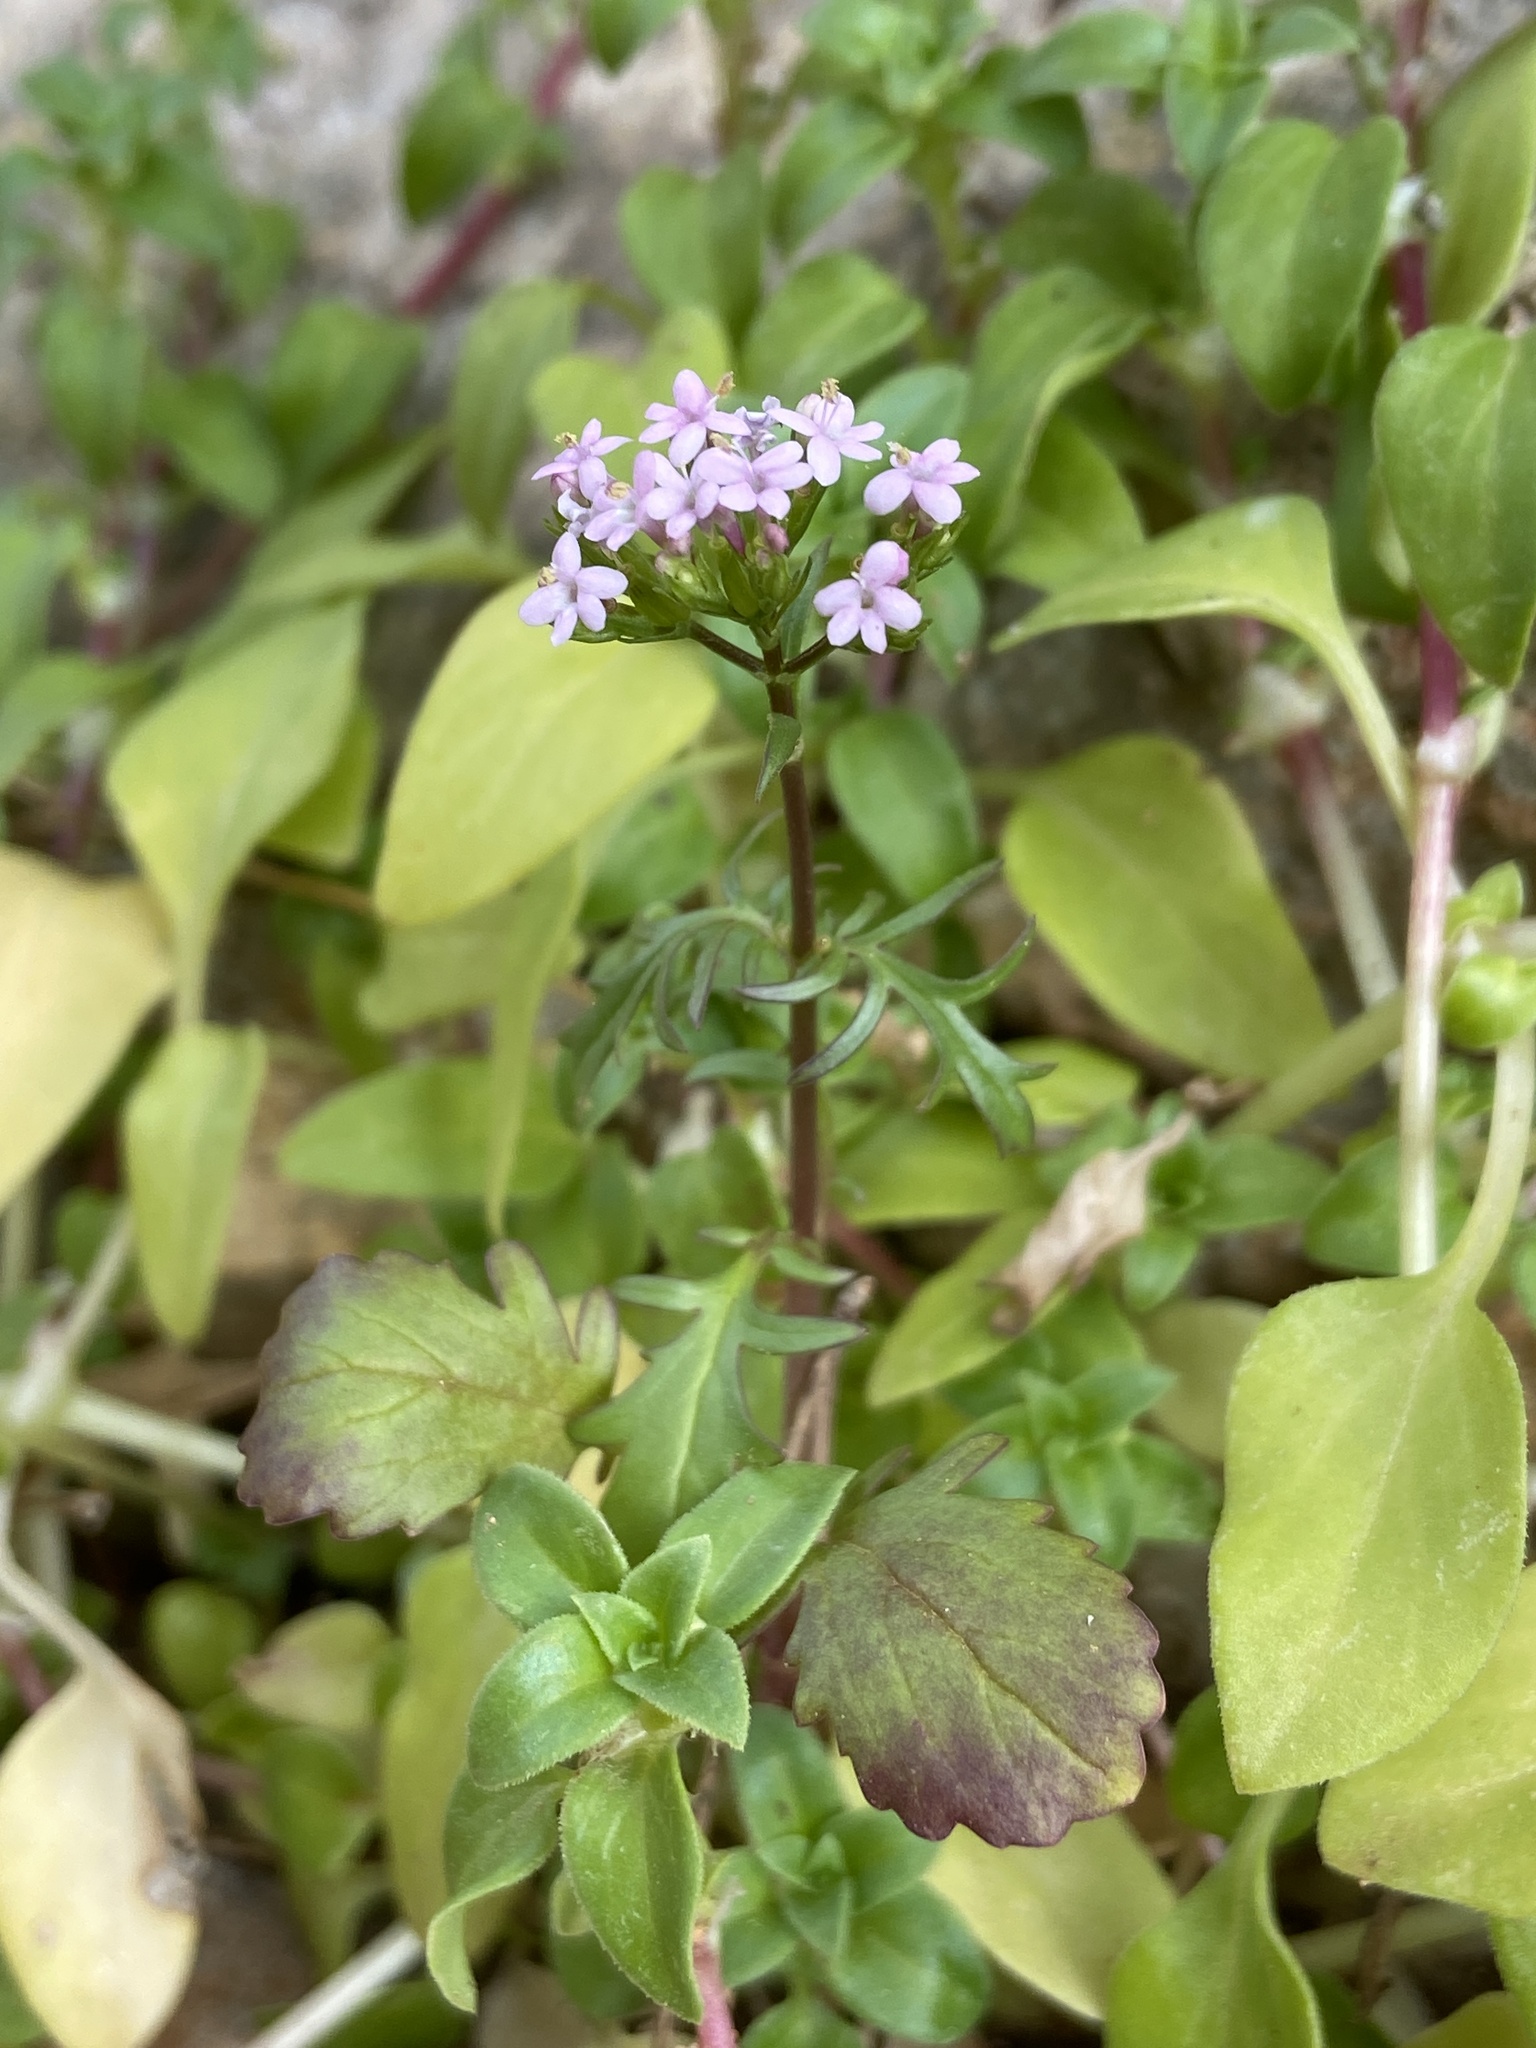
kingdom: Plantae
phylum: Tracheophyta
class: Magnoliopsida
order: Dipsacales
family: Caprifoliaceae
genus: Centranthus
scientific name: Centranthus calcitrapae
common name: Annual valerian
